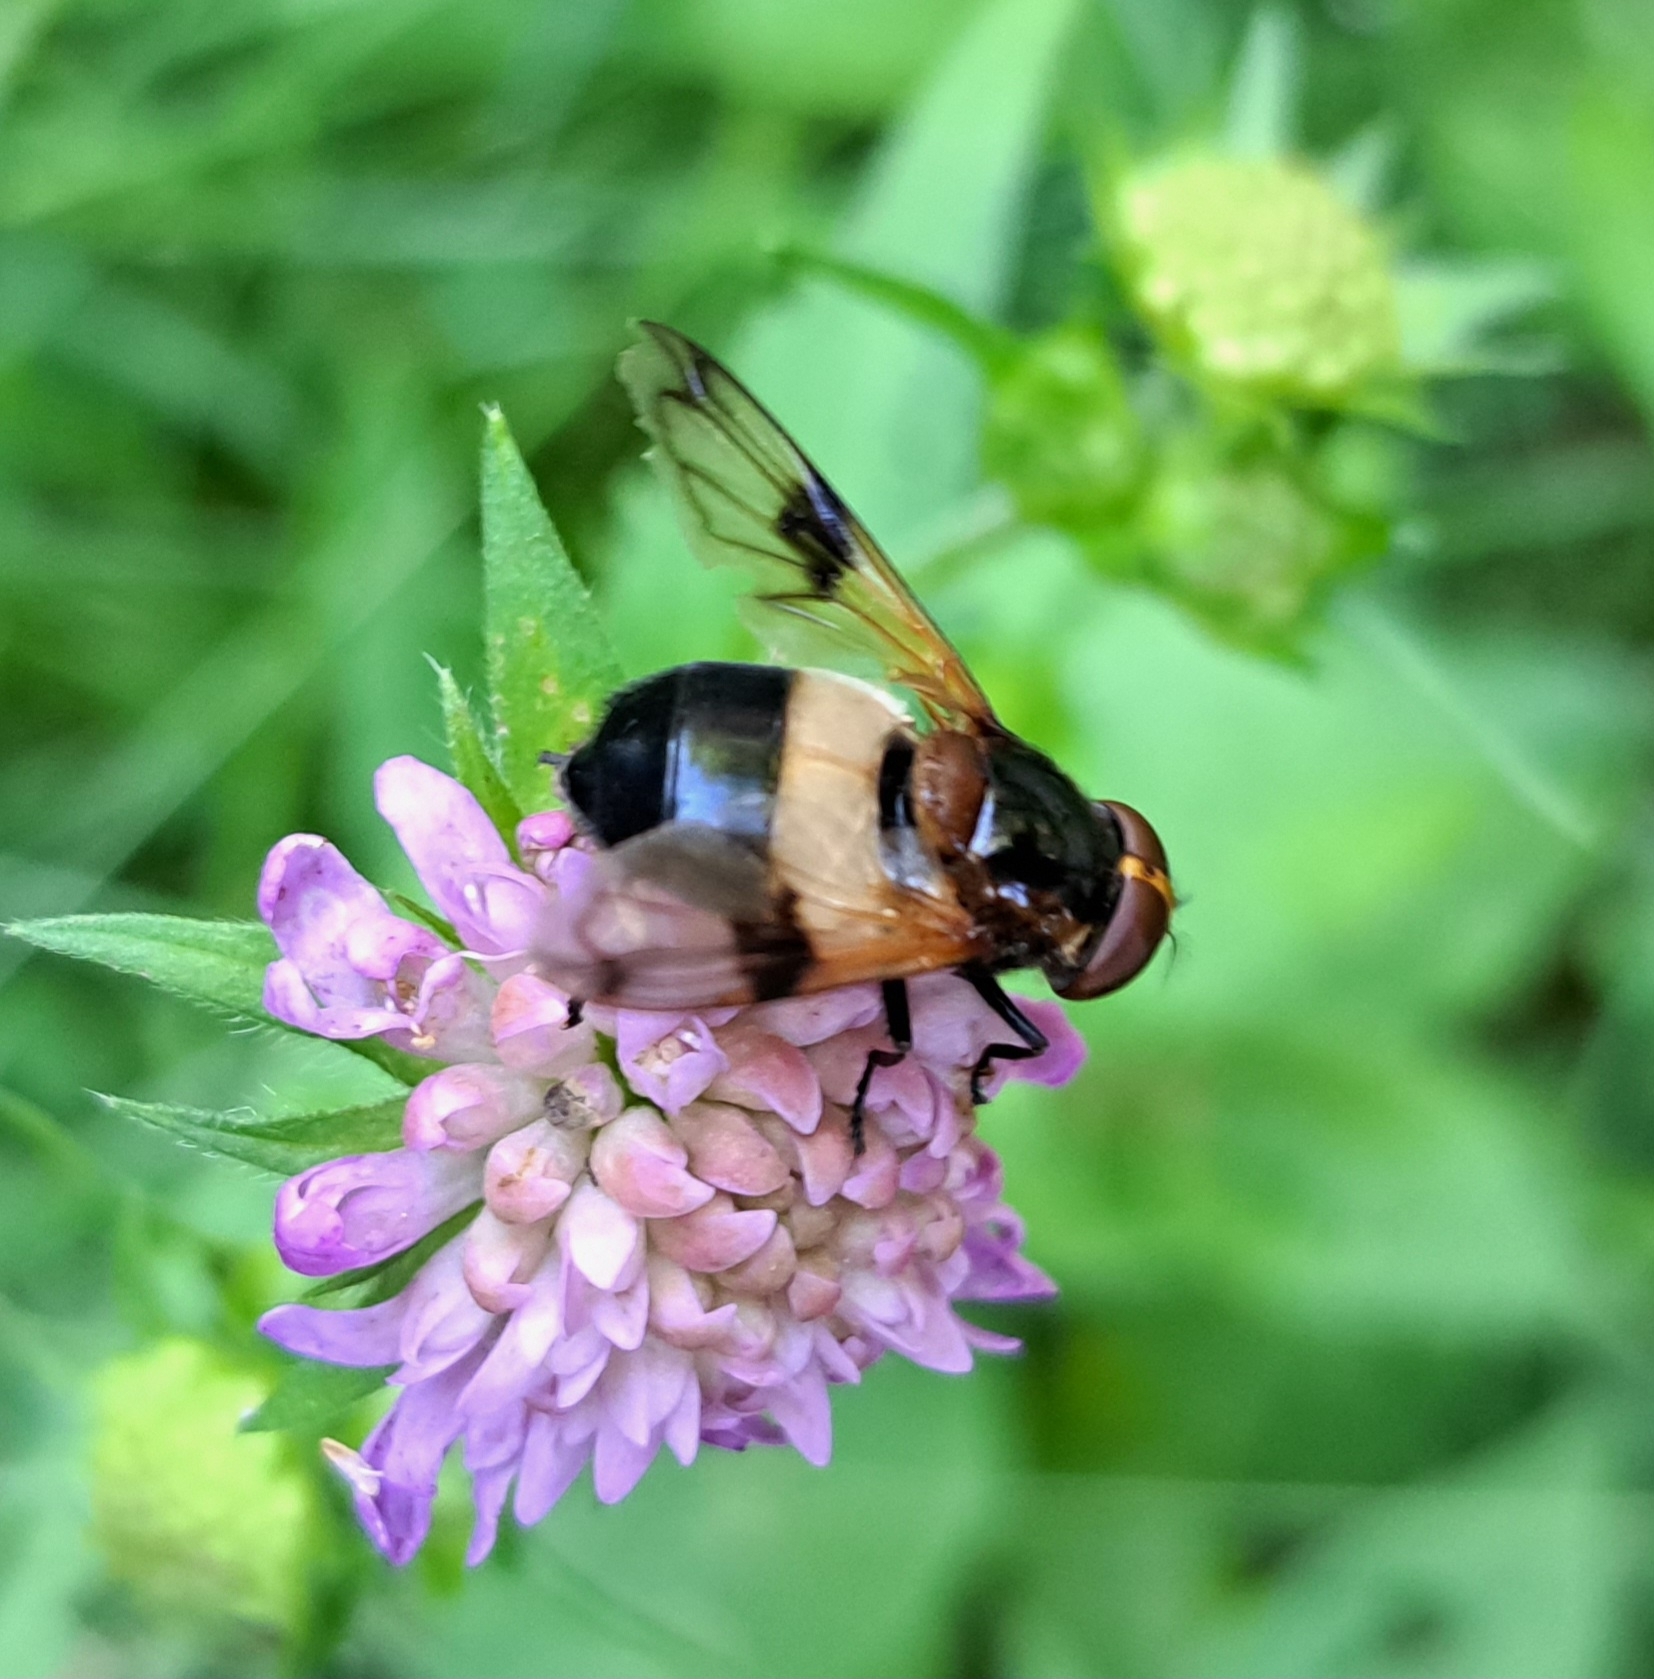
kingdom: Animalia
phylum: Arthropoda
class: Insecta
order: Diptera
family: Syrphidae
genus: Volucella
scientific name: Volucella pellucens
